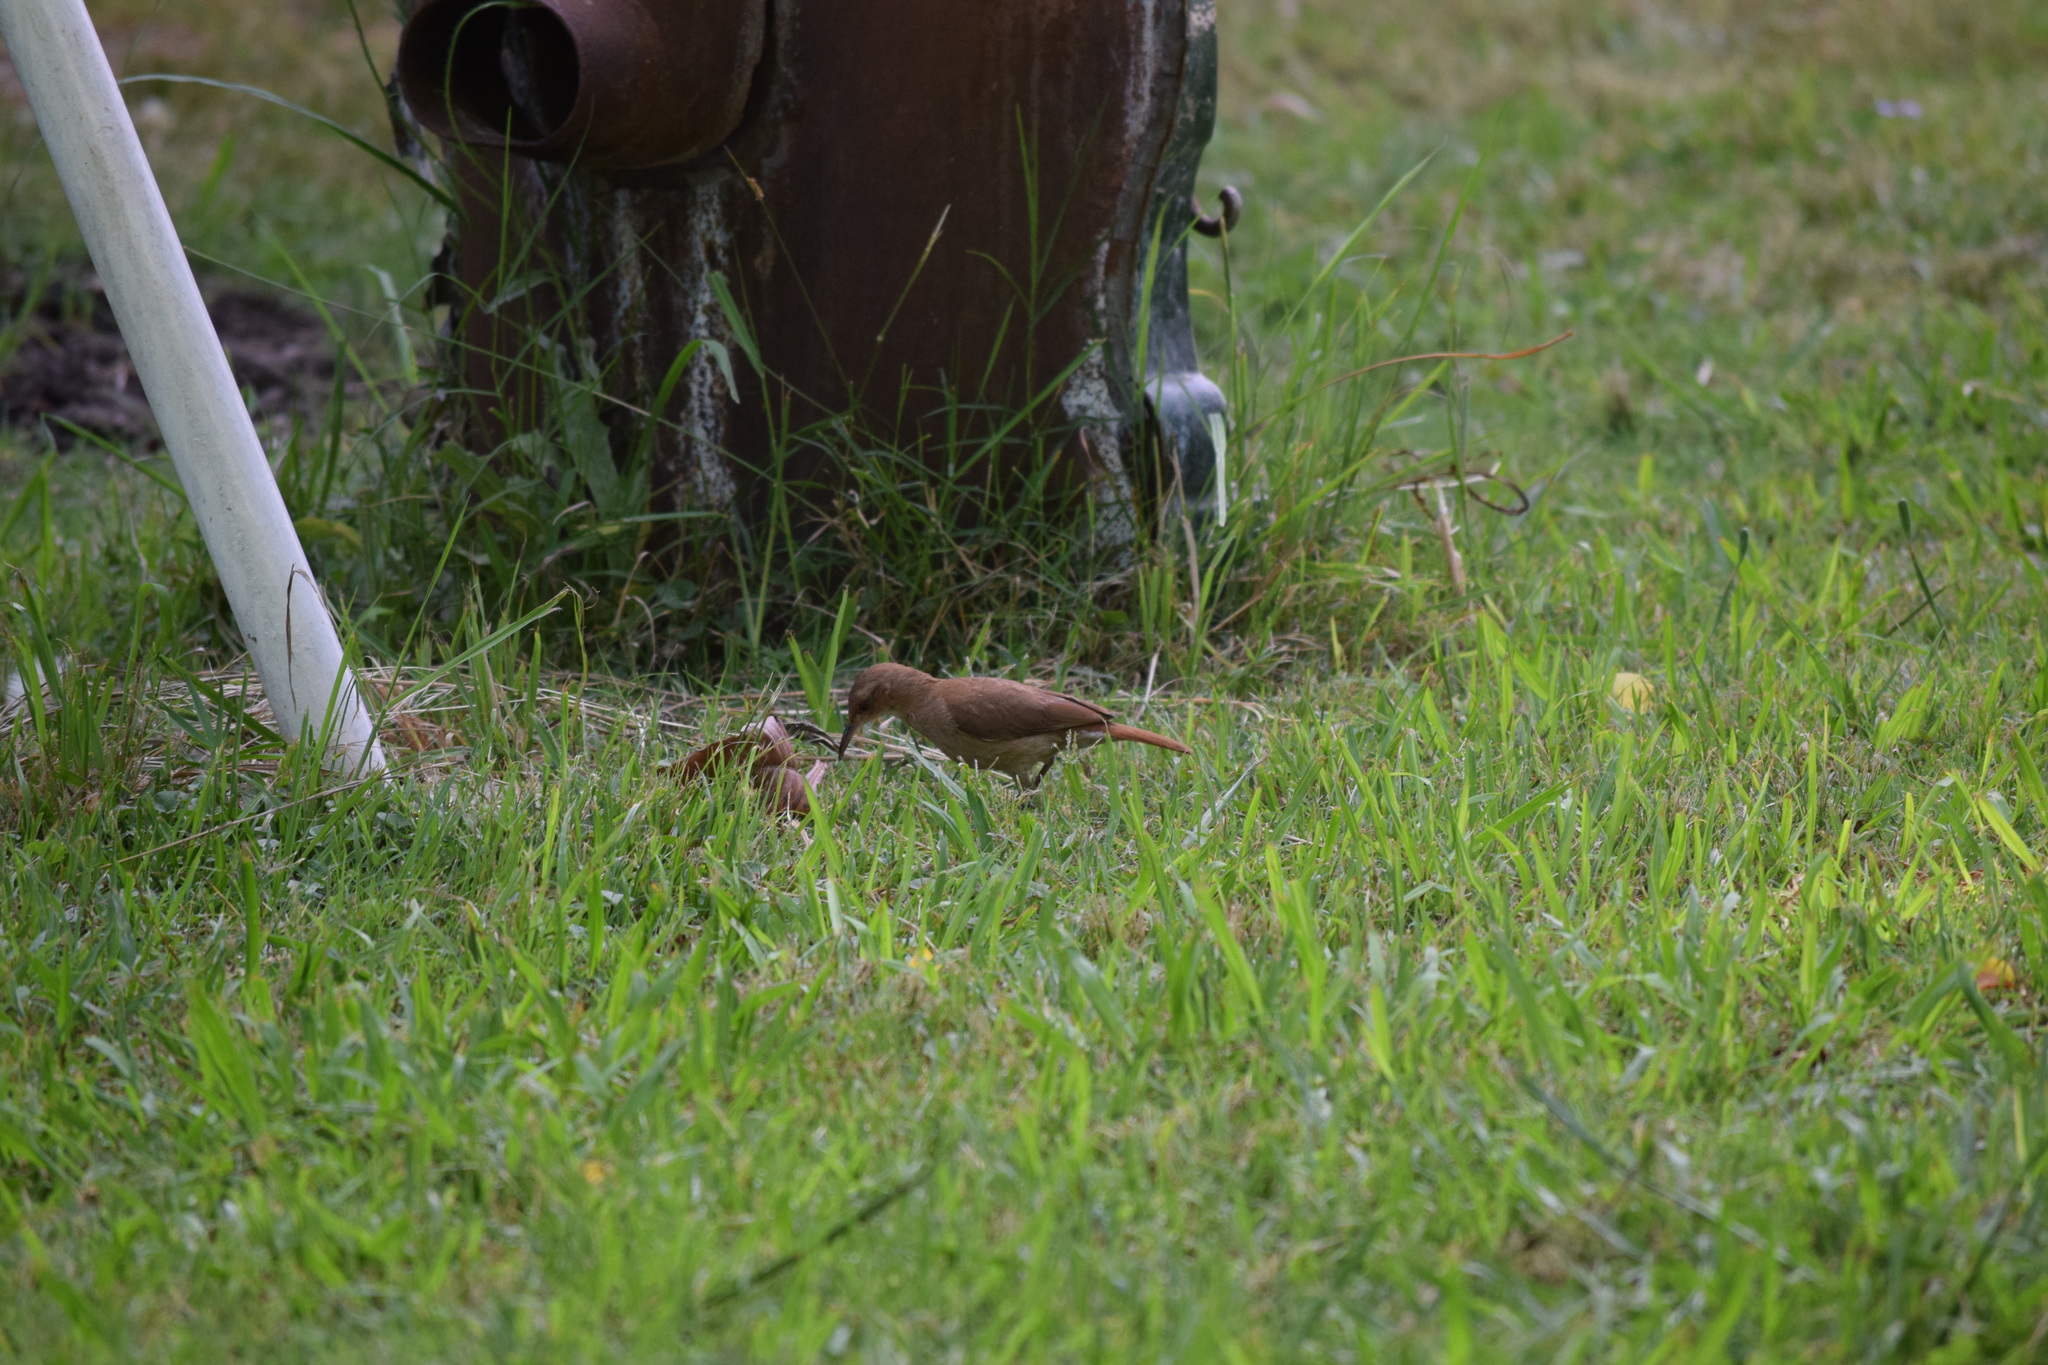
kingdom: Animalia
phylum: Chordata
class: Aves
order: Passeriformes
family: Furnariidae
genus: Furnarius
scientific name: Furnarius rufus
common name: Rufous hornero
